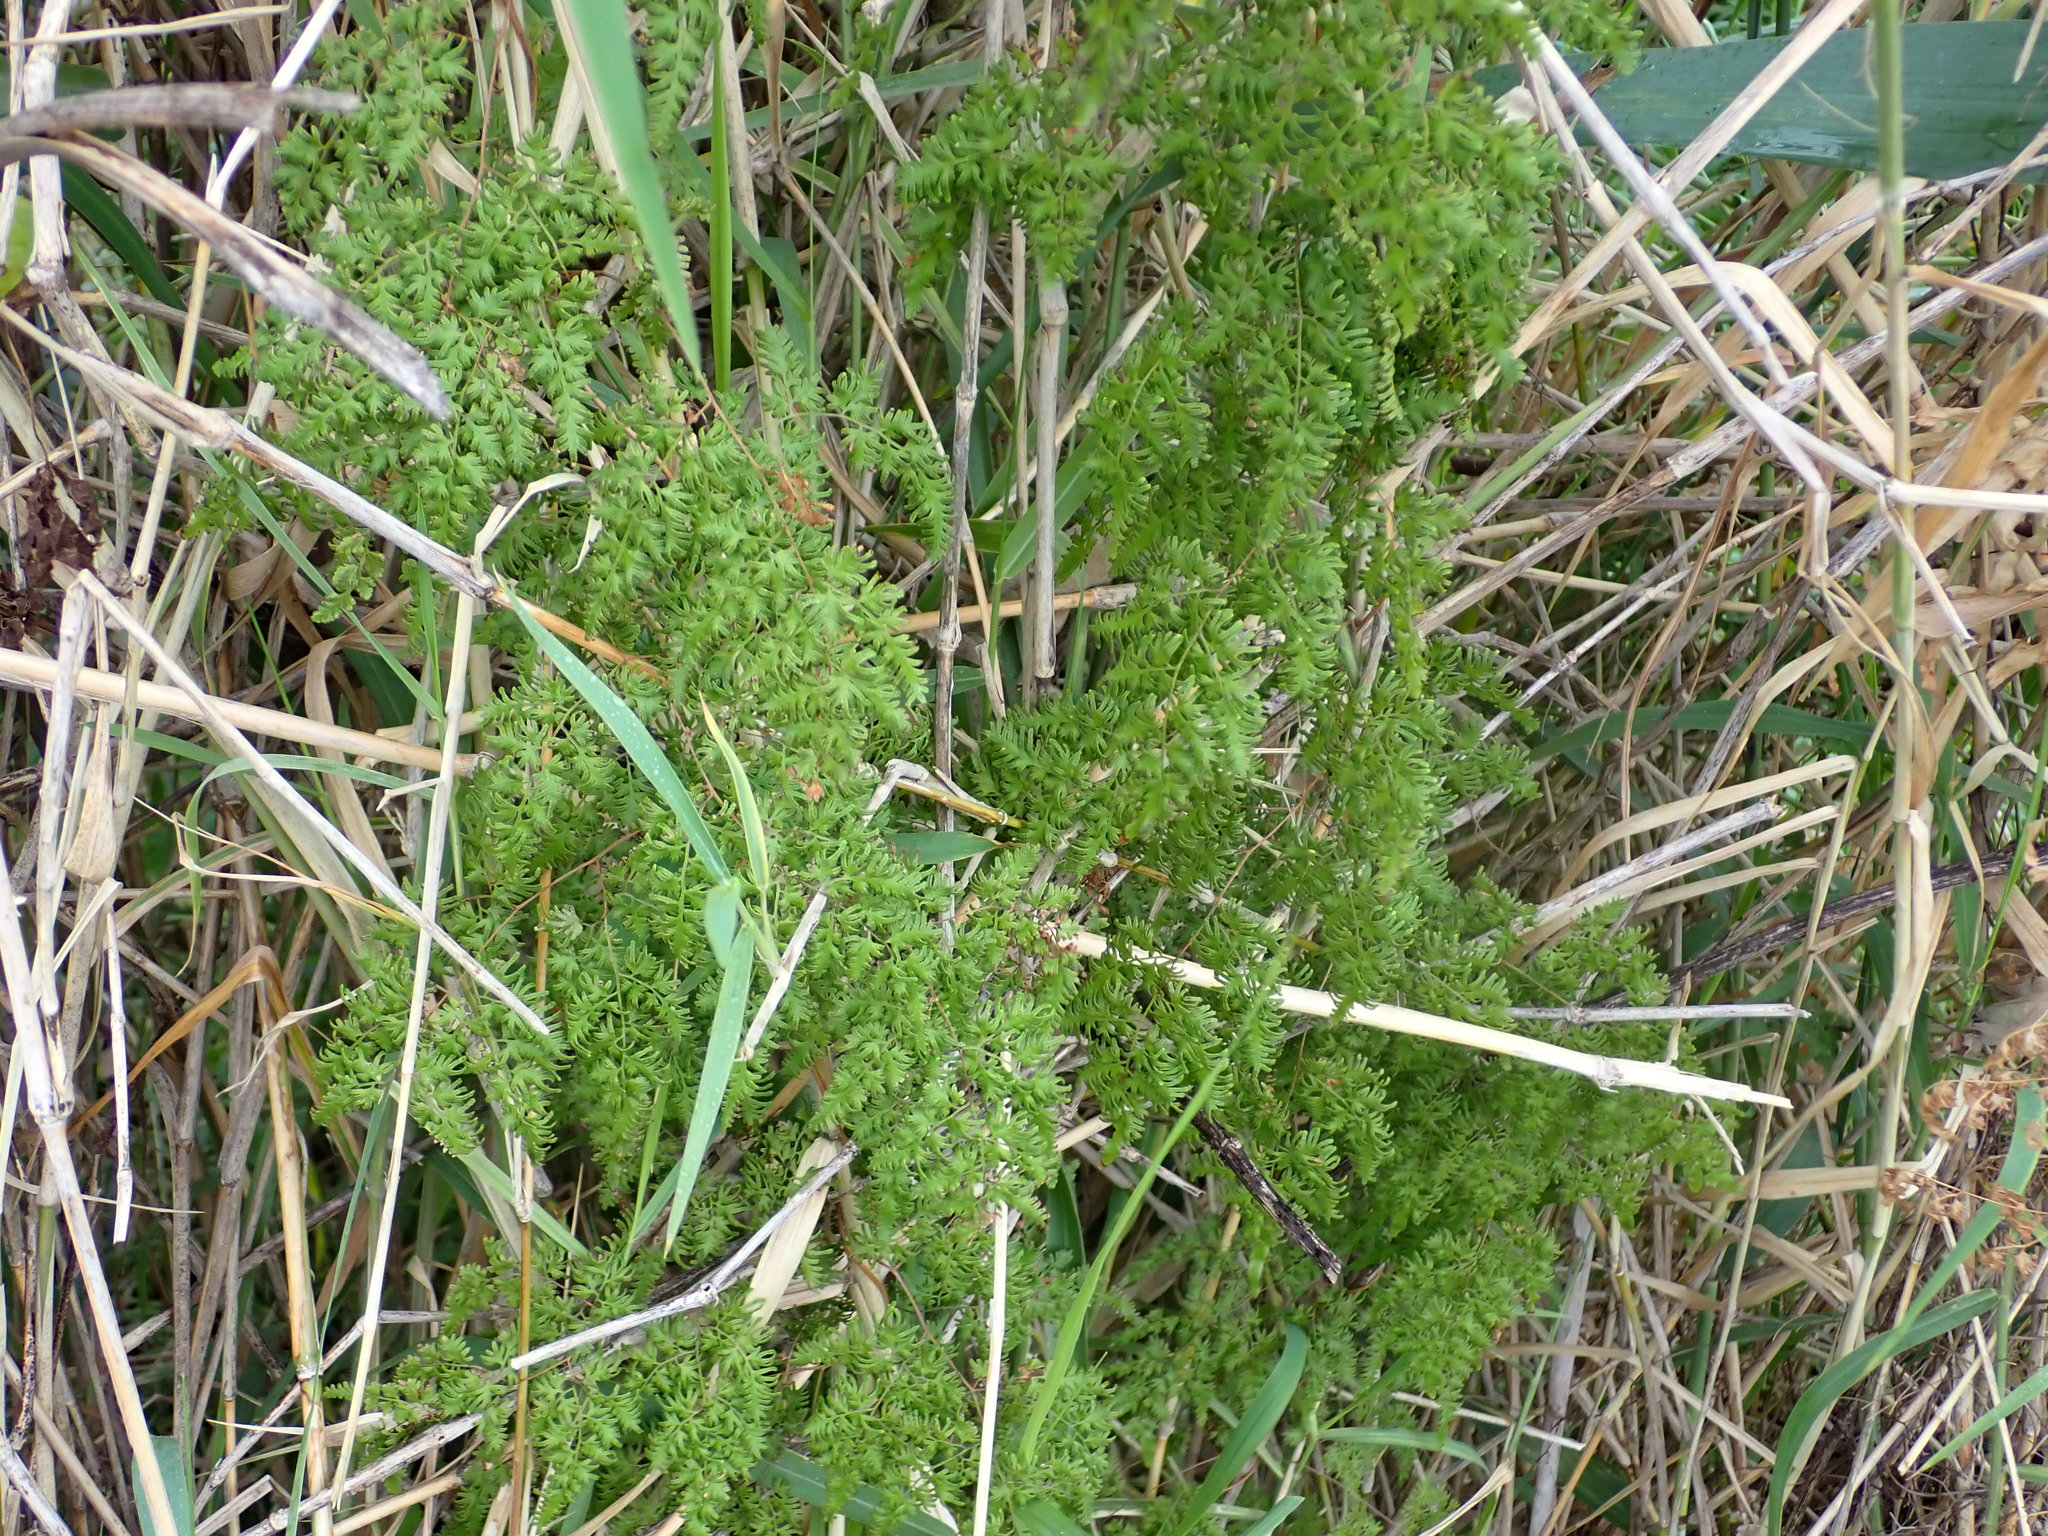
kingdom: Plantae
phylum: Tracheophyta
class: Polypodiopsida
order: Schizaeales
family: Lygodiaceae
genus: Lygodium
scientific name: Lygodium japonicum
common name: Japanese climbing fern
